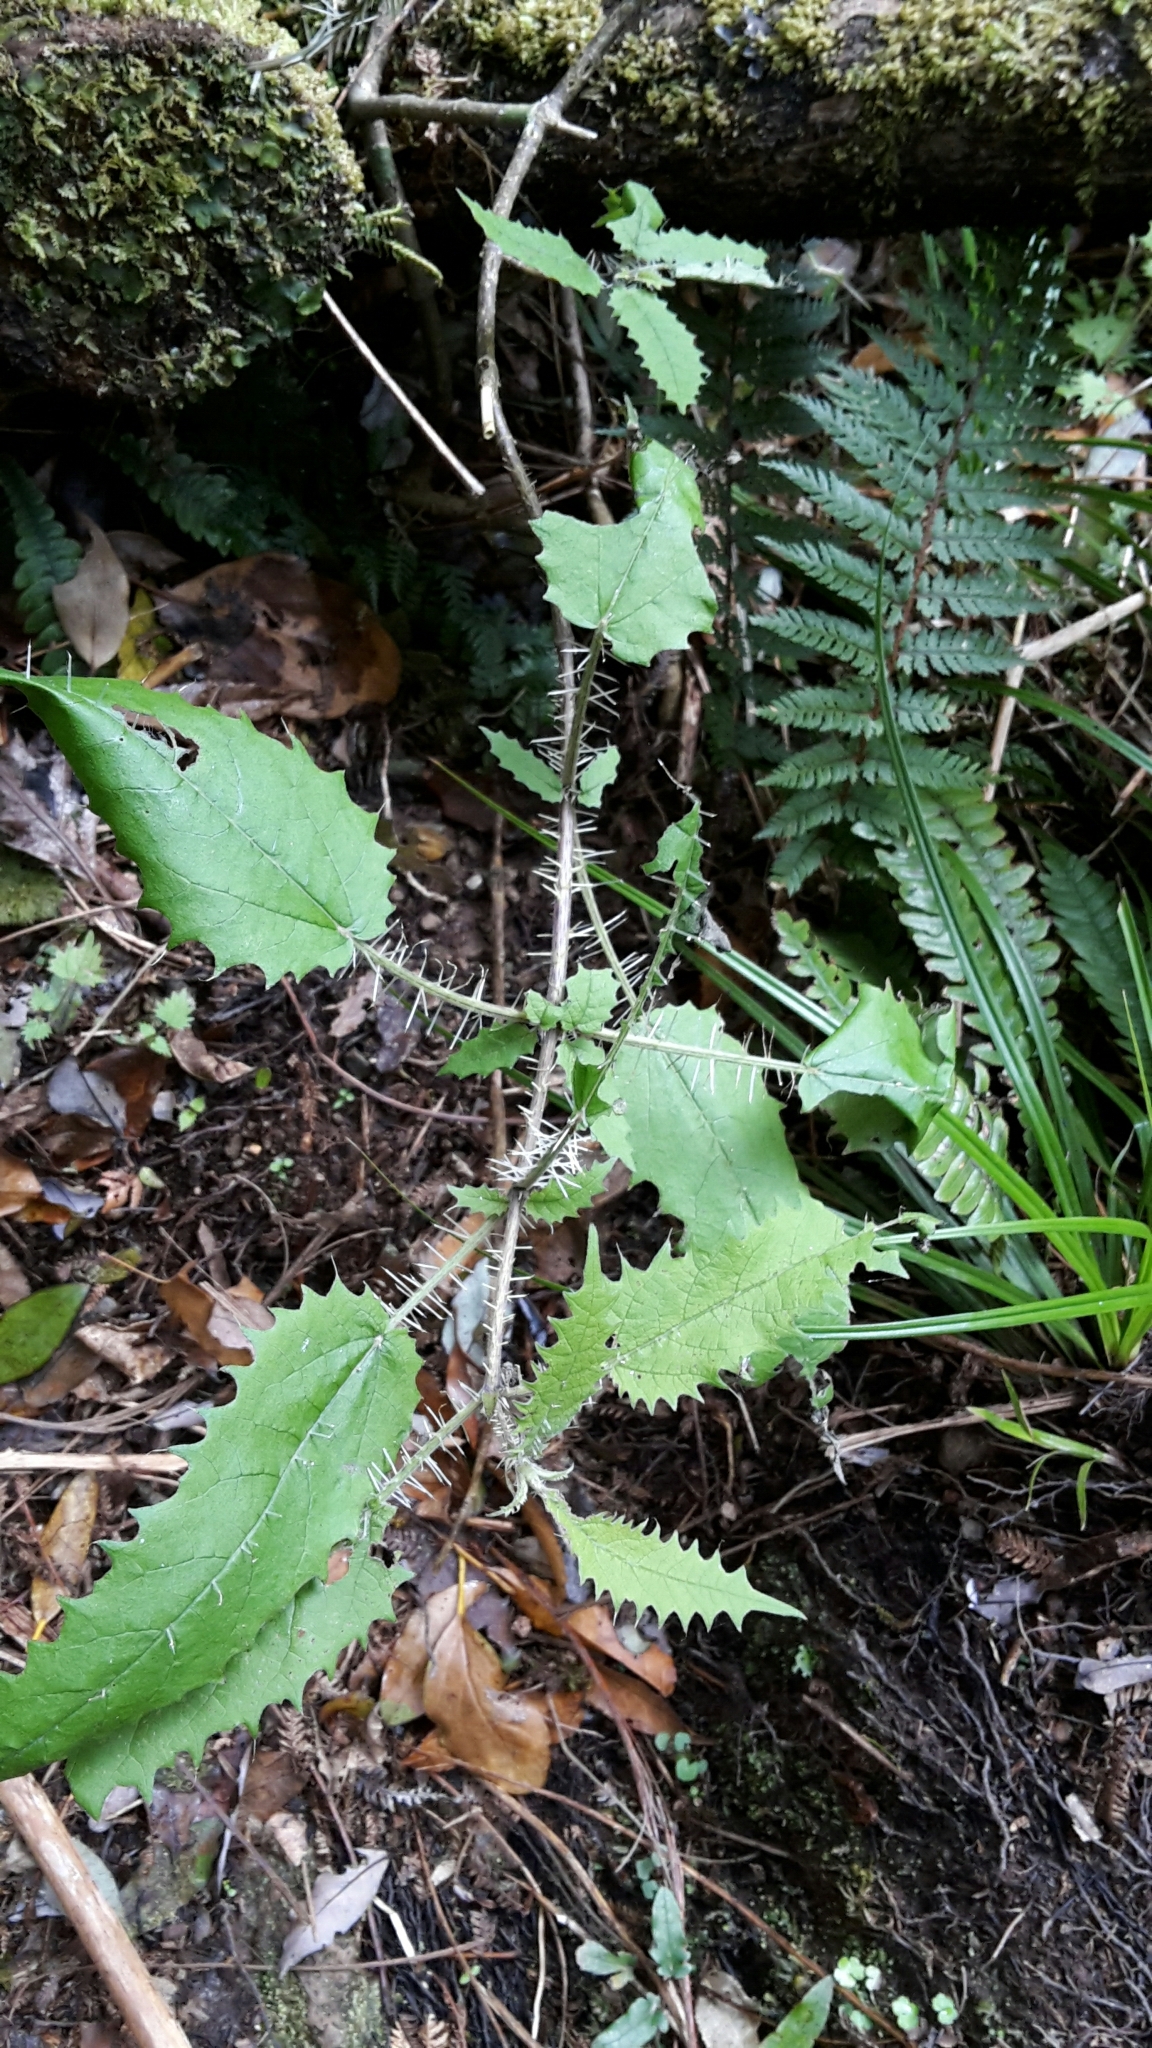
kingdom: Plantae
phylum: Tracheophyta
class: Magnoliopsida
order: Rosales
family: Urticaceae
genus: Urtica
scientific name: Urtica ferox
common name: Tree nettle
